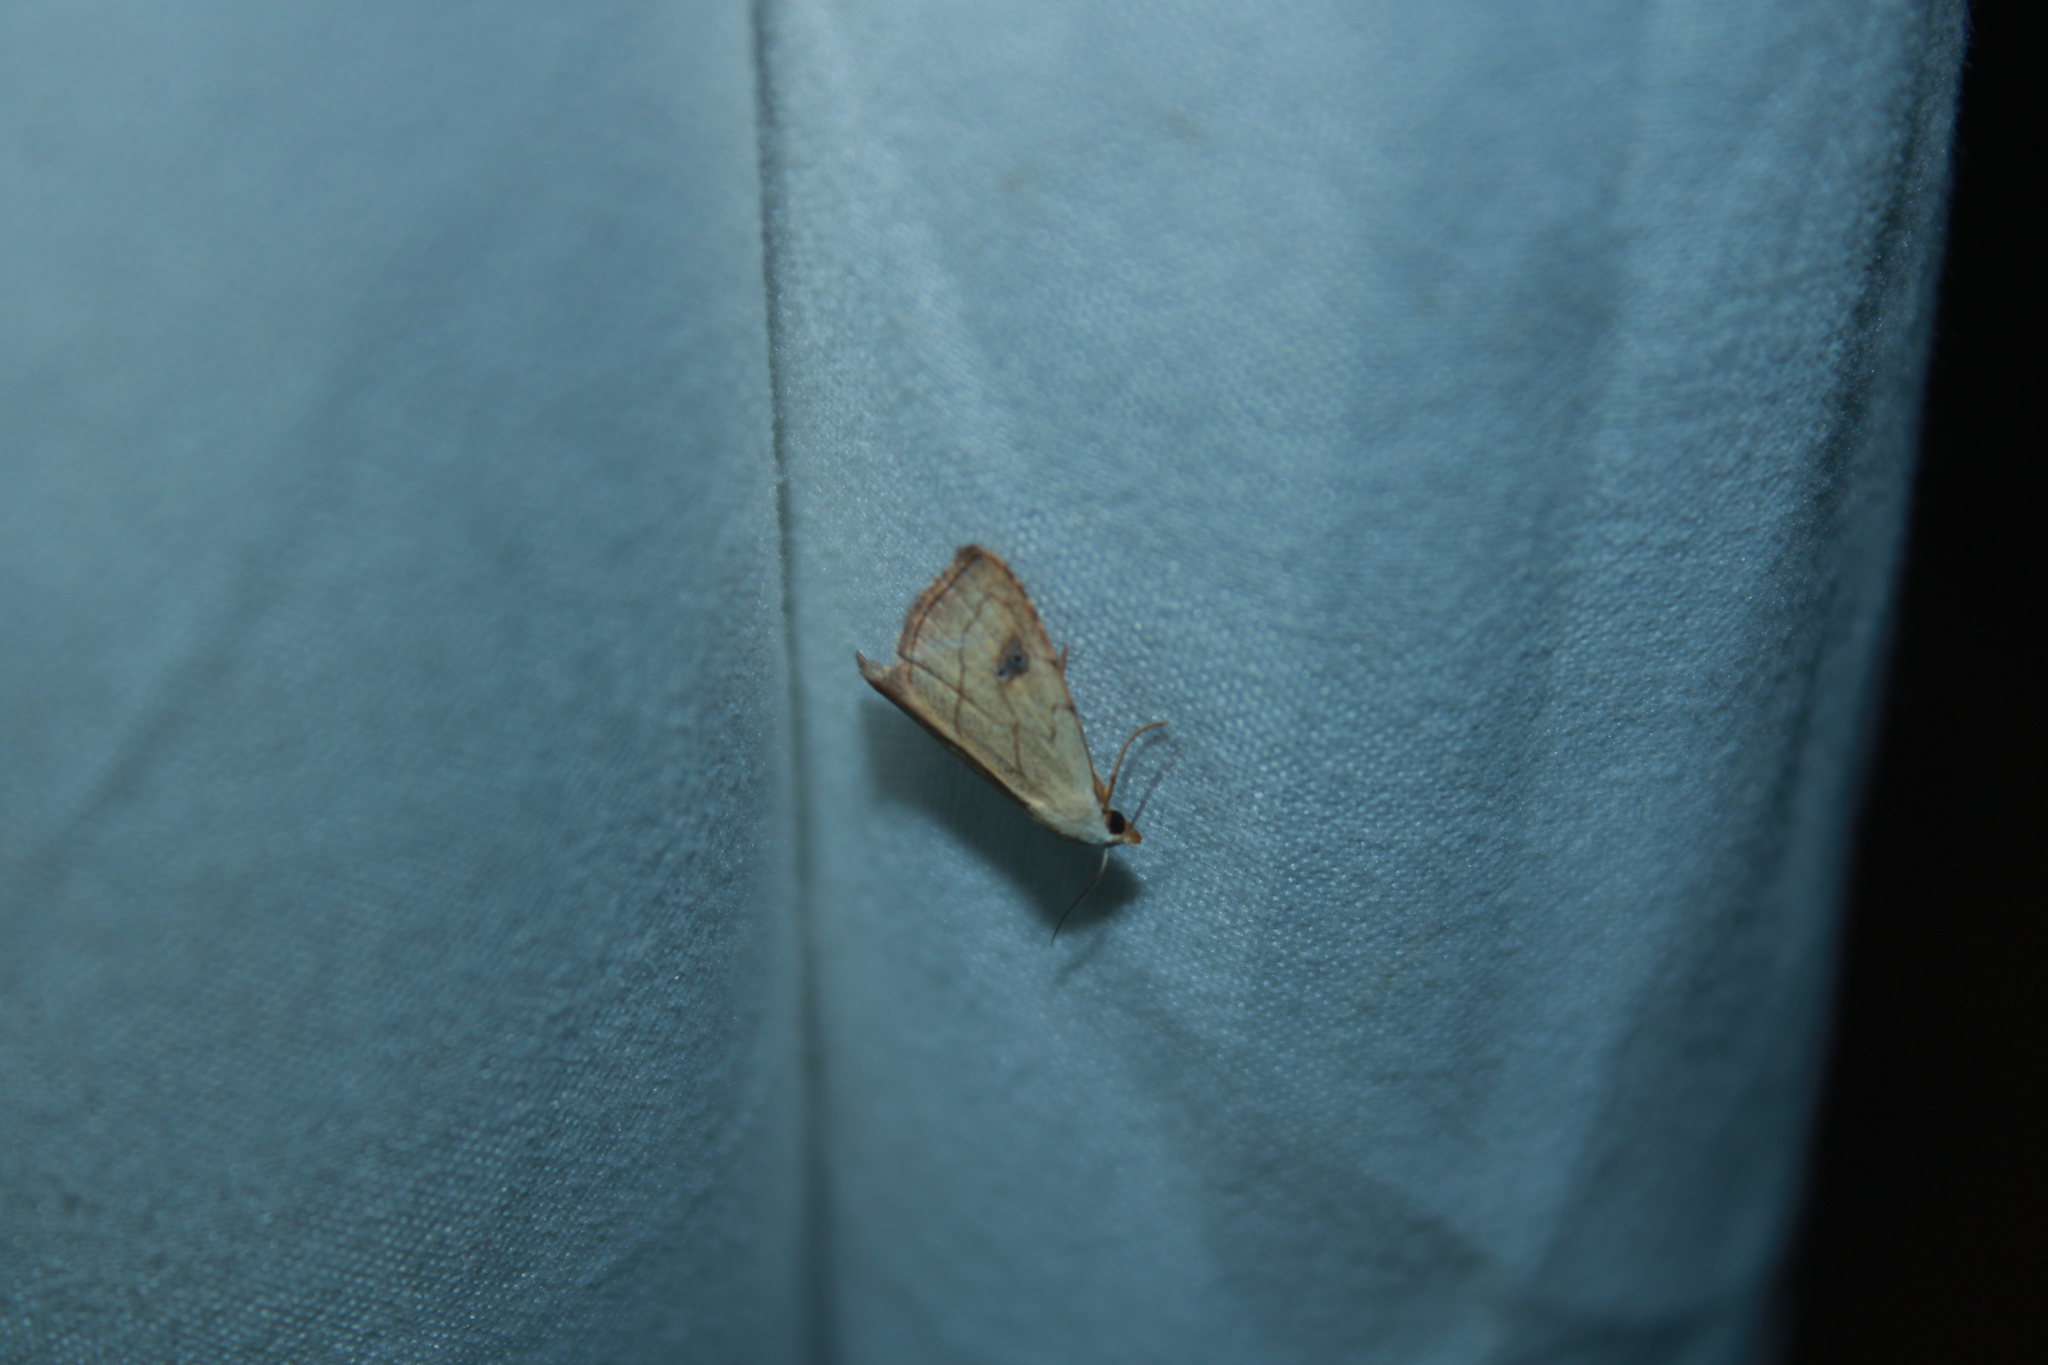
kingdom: Animalia
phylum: Arthropoda
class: Insecta
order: Lepidoptera
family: Erebidae
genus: Rivula
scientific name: Rivula propinqualis
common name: Spotted grass moth
